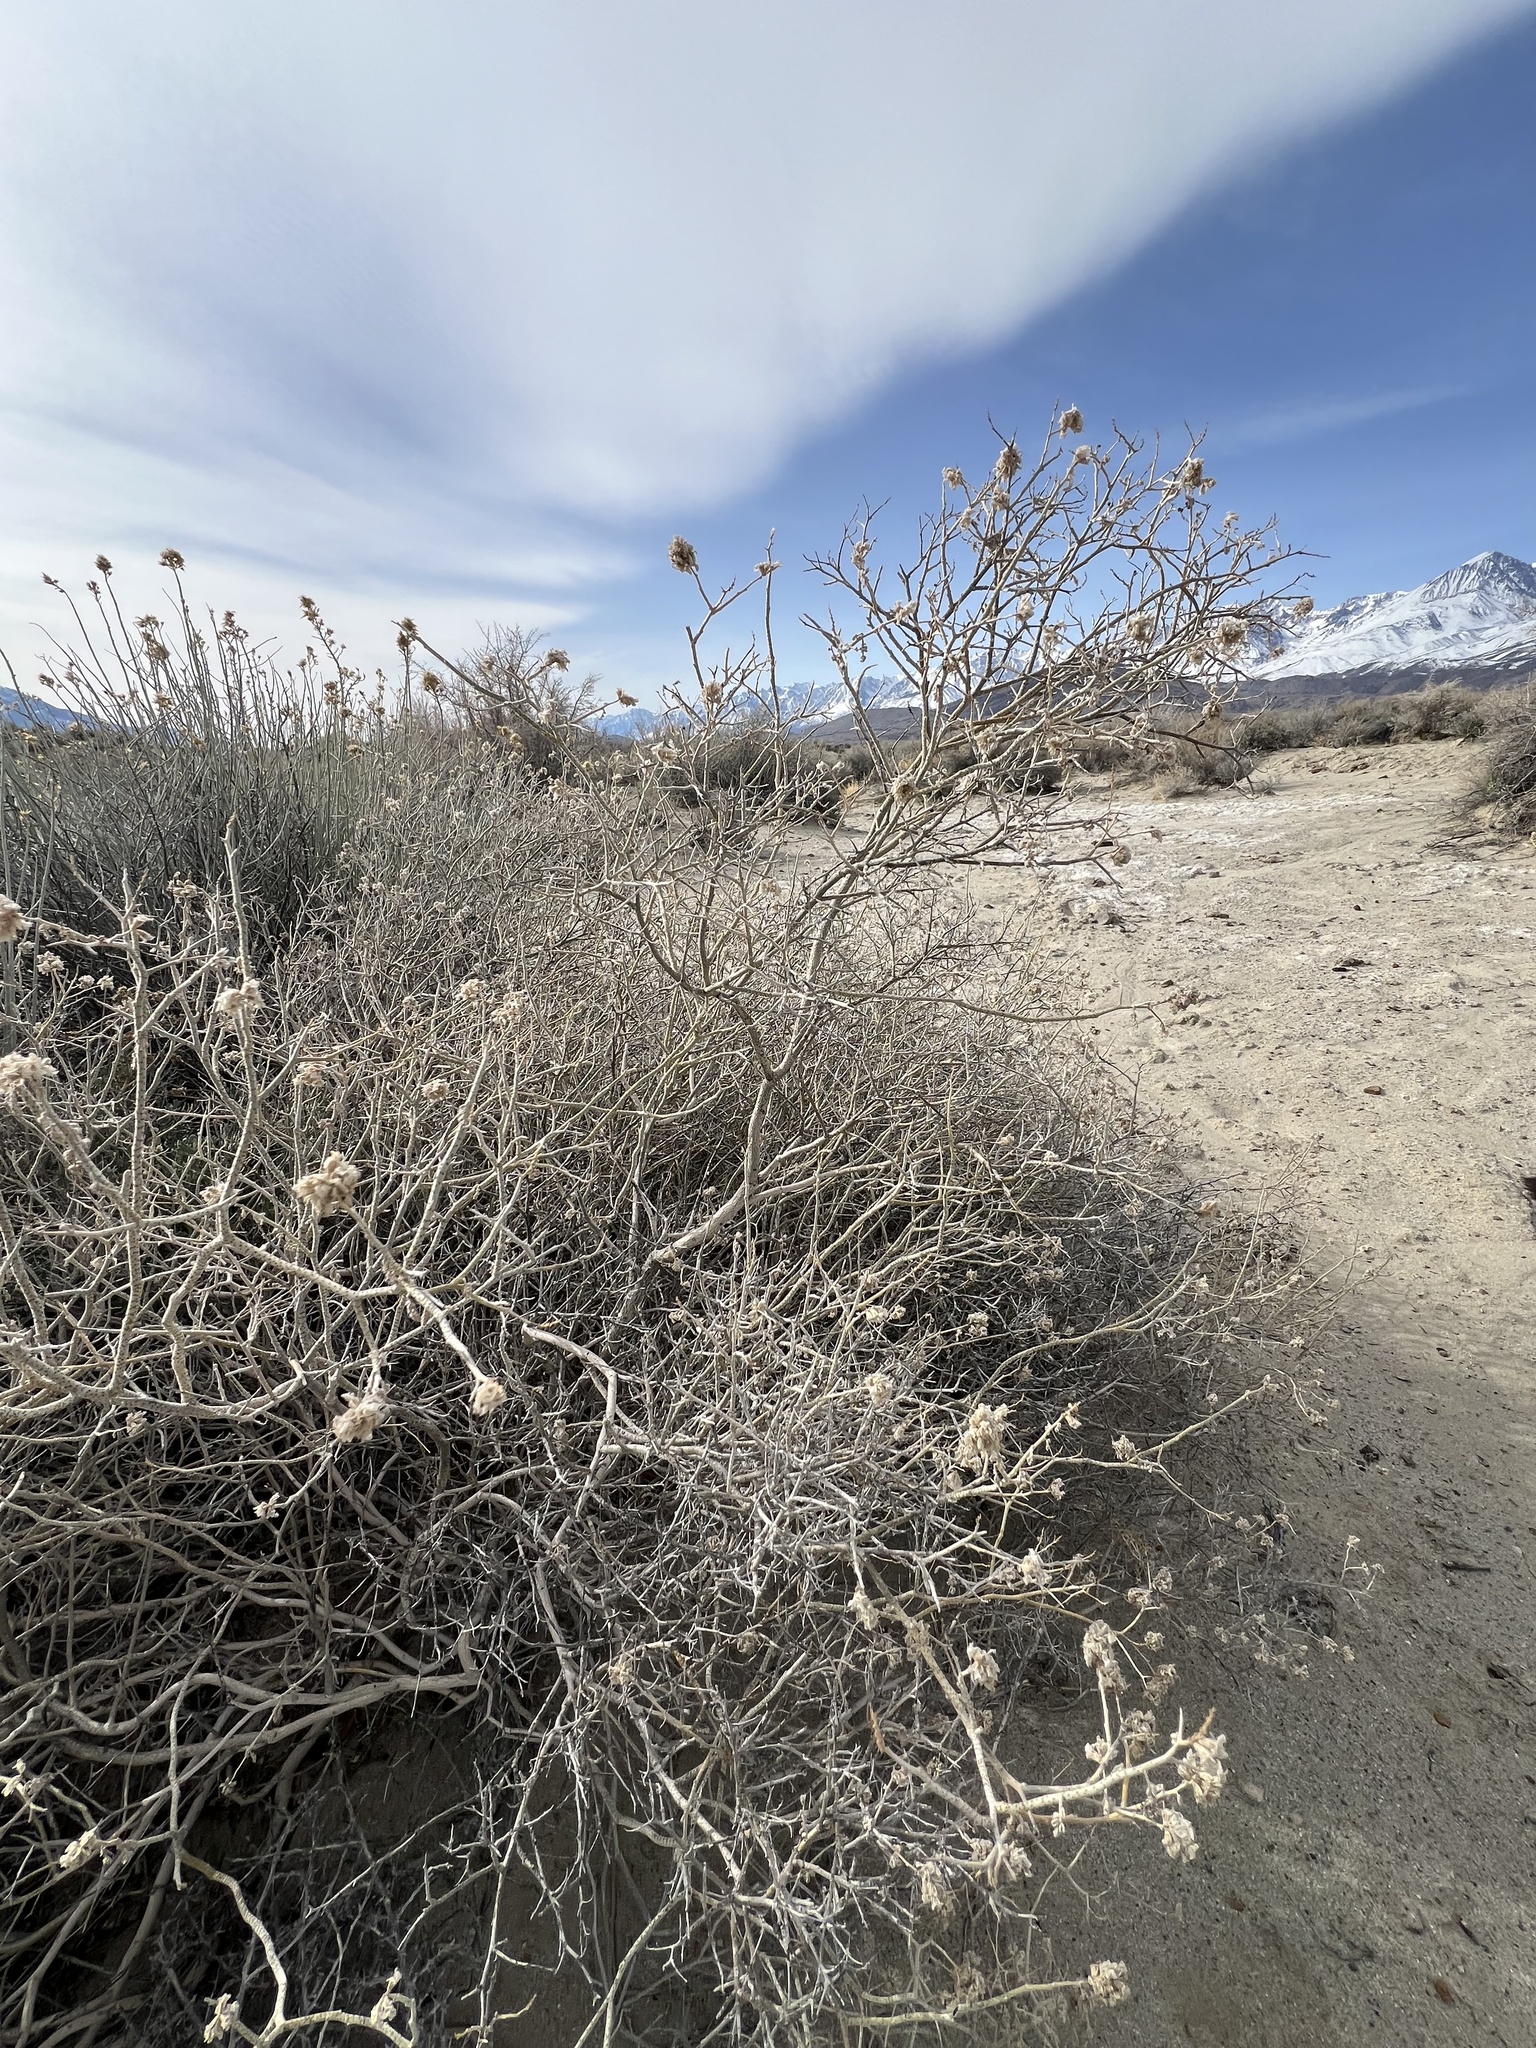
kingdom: Plantae
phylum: Tracheophyta
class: Magnoliopsida
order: Fabales
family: Fabaceae
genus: Psorothamnus
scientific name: Psorothamnus polydenius
